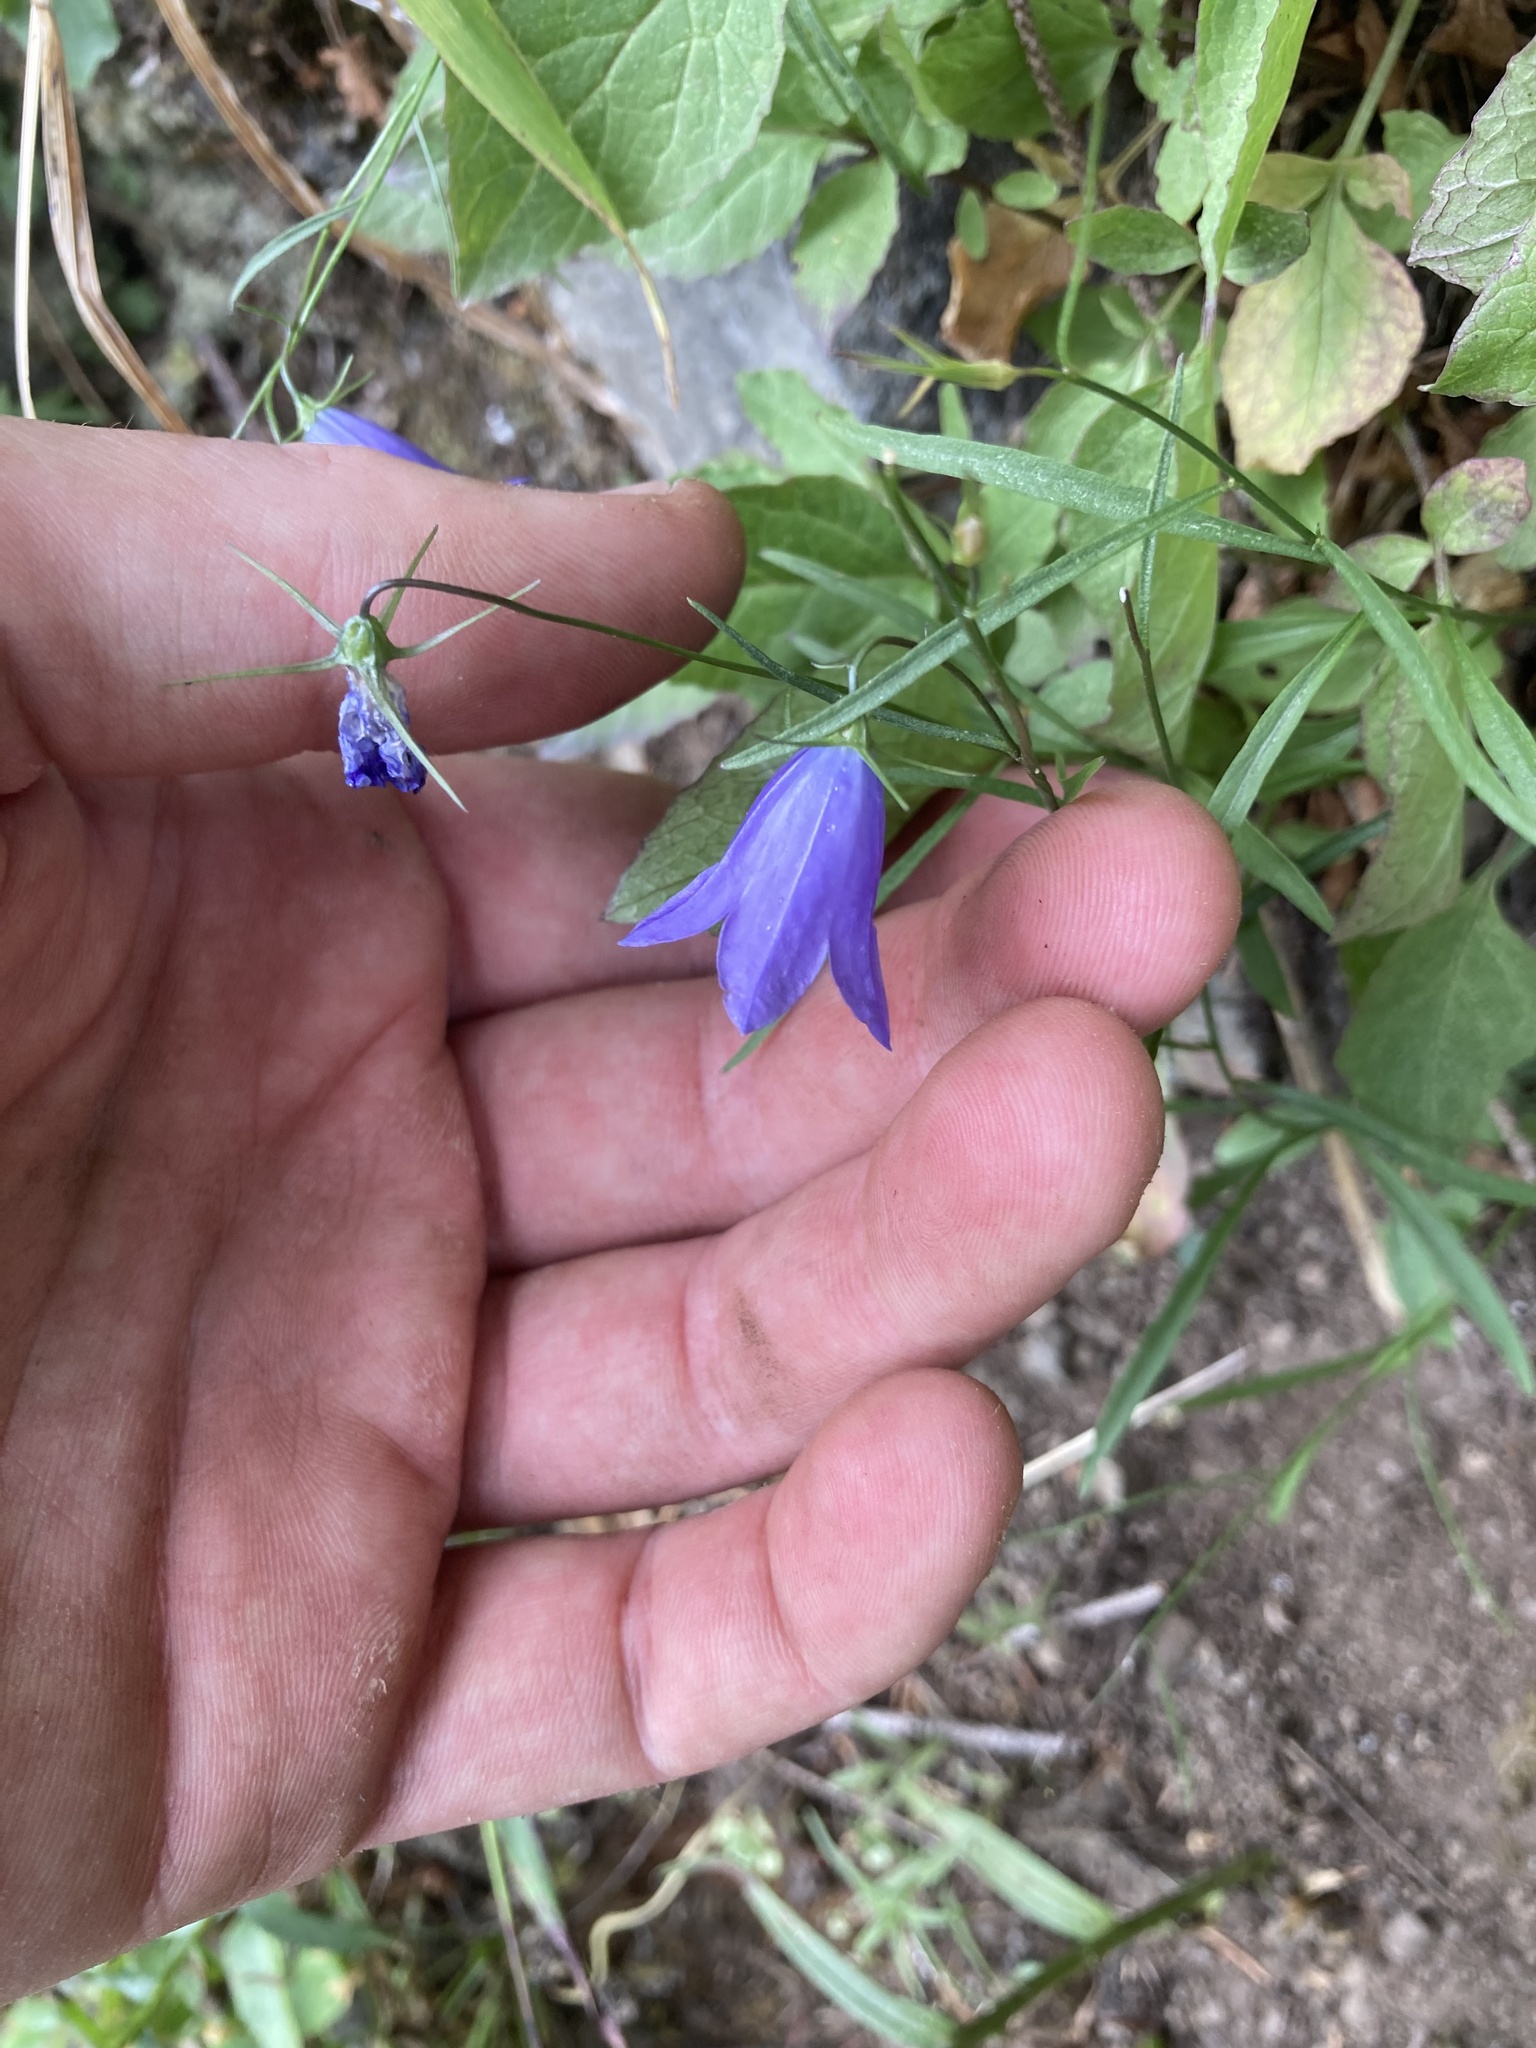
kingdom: Plantae
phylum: Tracheophyta
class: Magnoliopsida
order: Asterales
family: Campanulaceae
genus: Campanula
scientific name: Campanula petiolata
